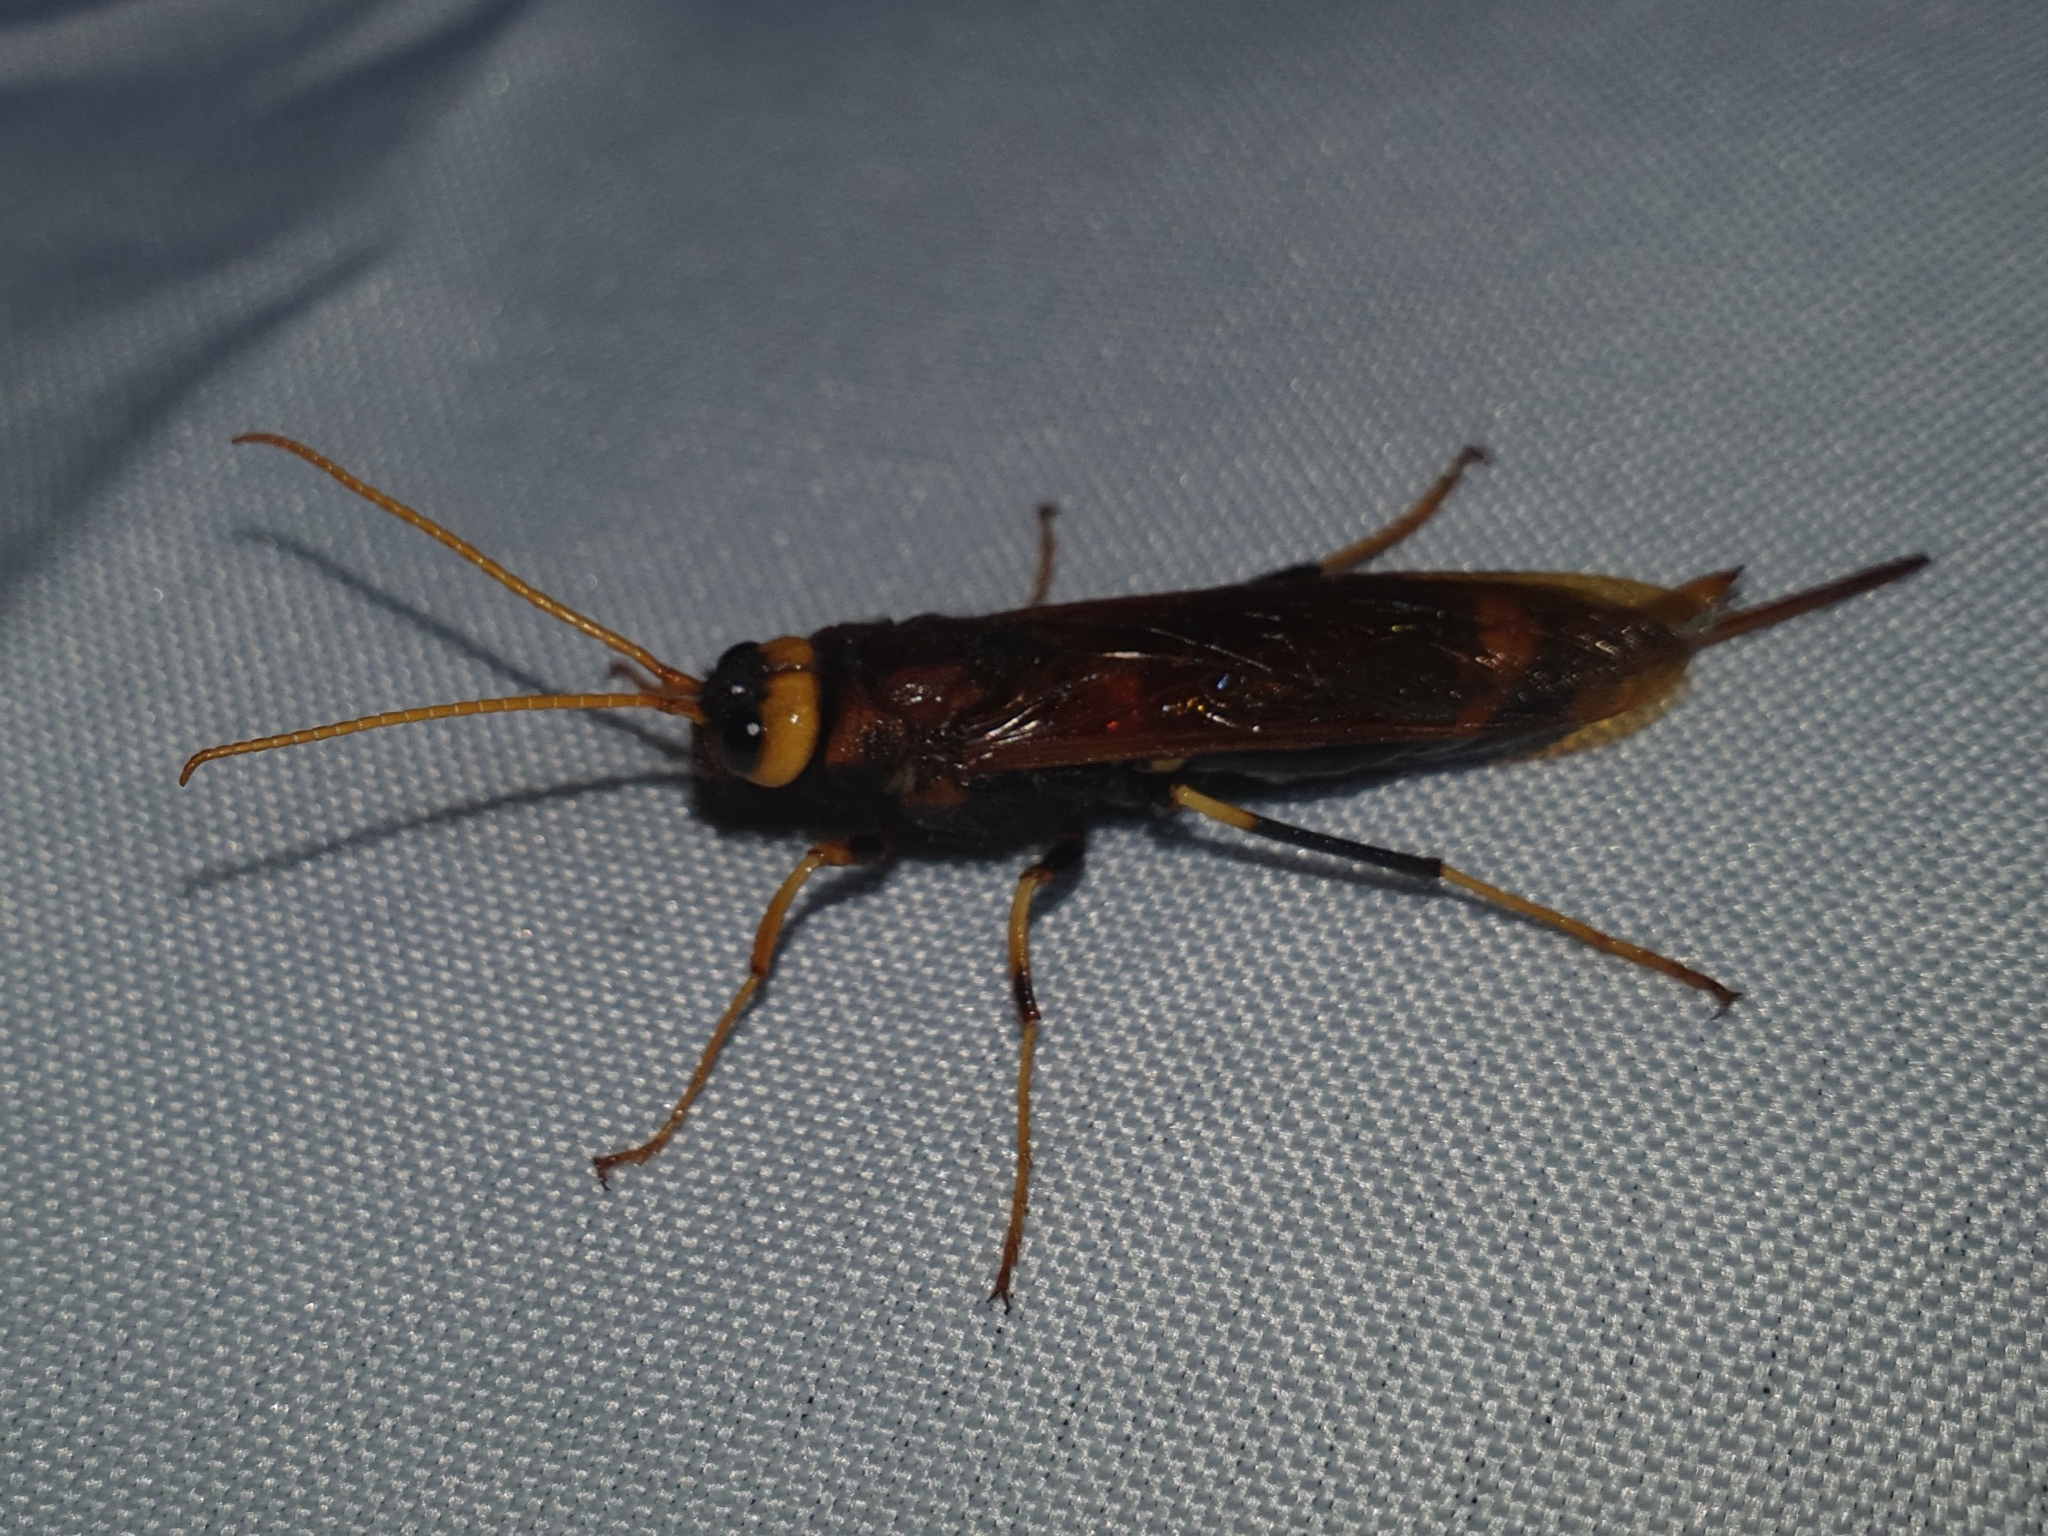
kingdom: Animalia
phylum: Arthropoda
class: Insecta
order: Hymenoptera
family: Siricidae
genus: Urocerus
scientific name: Urocerus sah
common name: Horntail wasp
